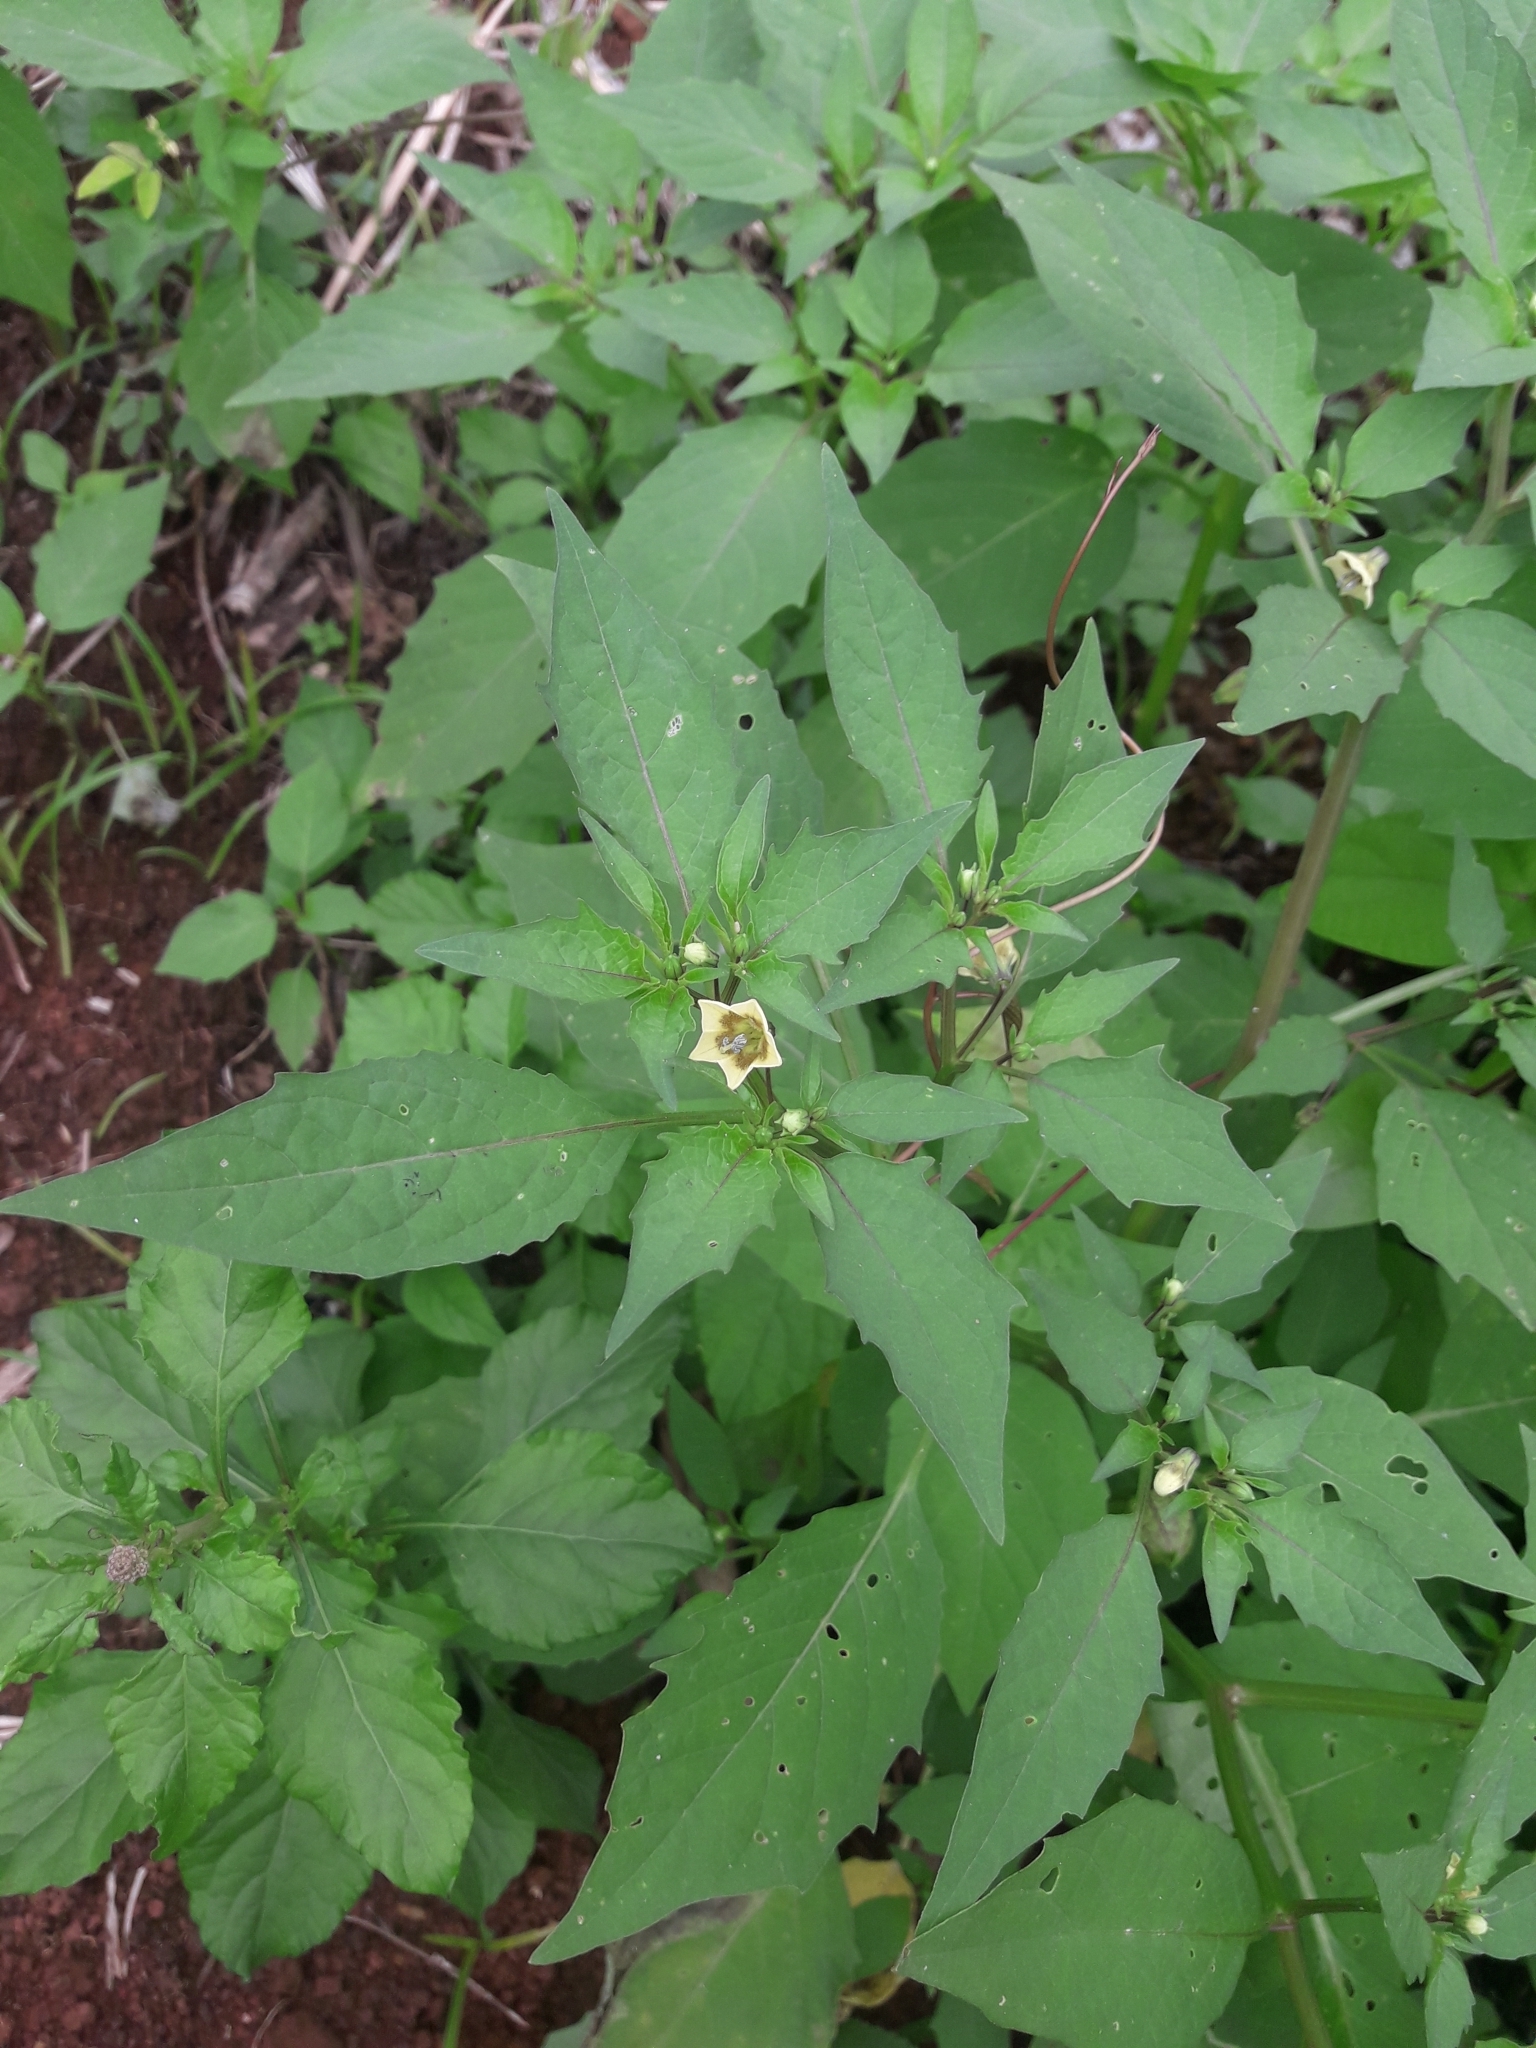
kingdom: Plantae
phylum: Tracheophyta
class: Magnoliopsida
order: Solanales
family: Solanaceae
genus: Physalis
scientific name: Physalis angulata
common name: Angular winter-cherry
